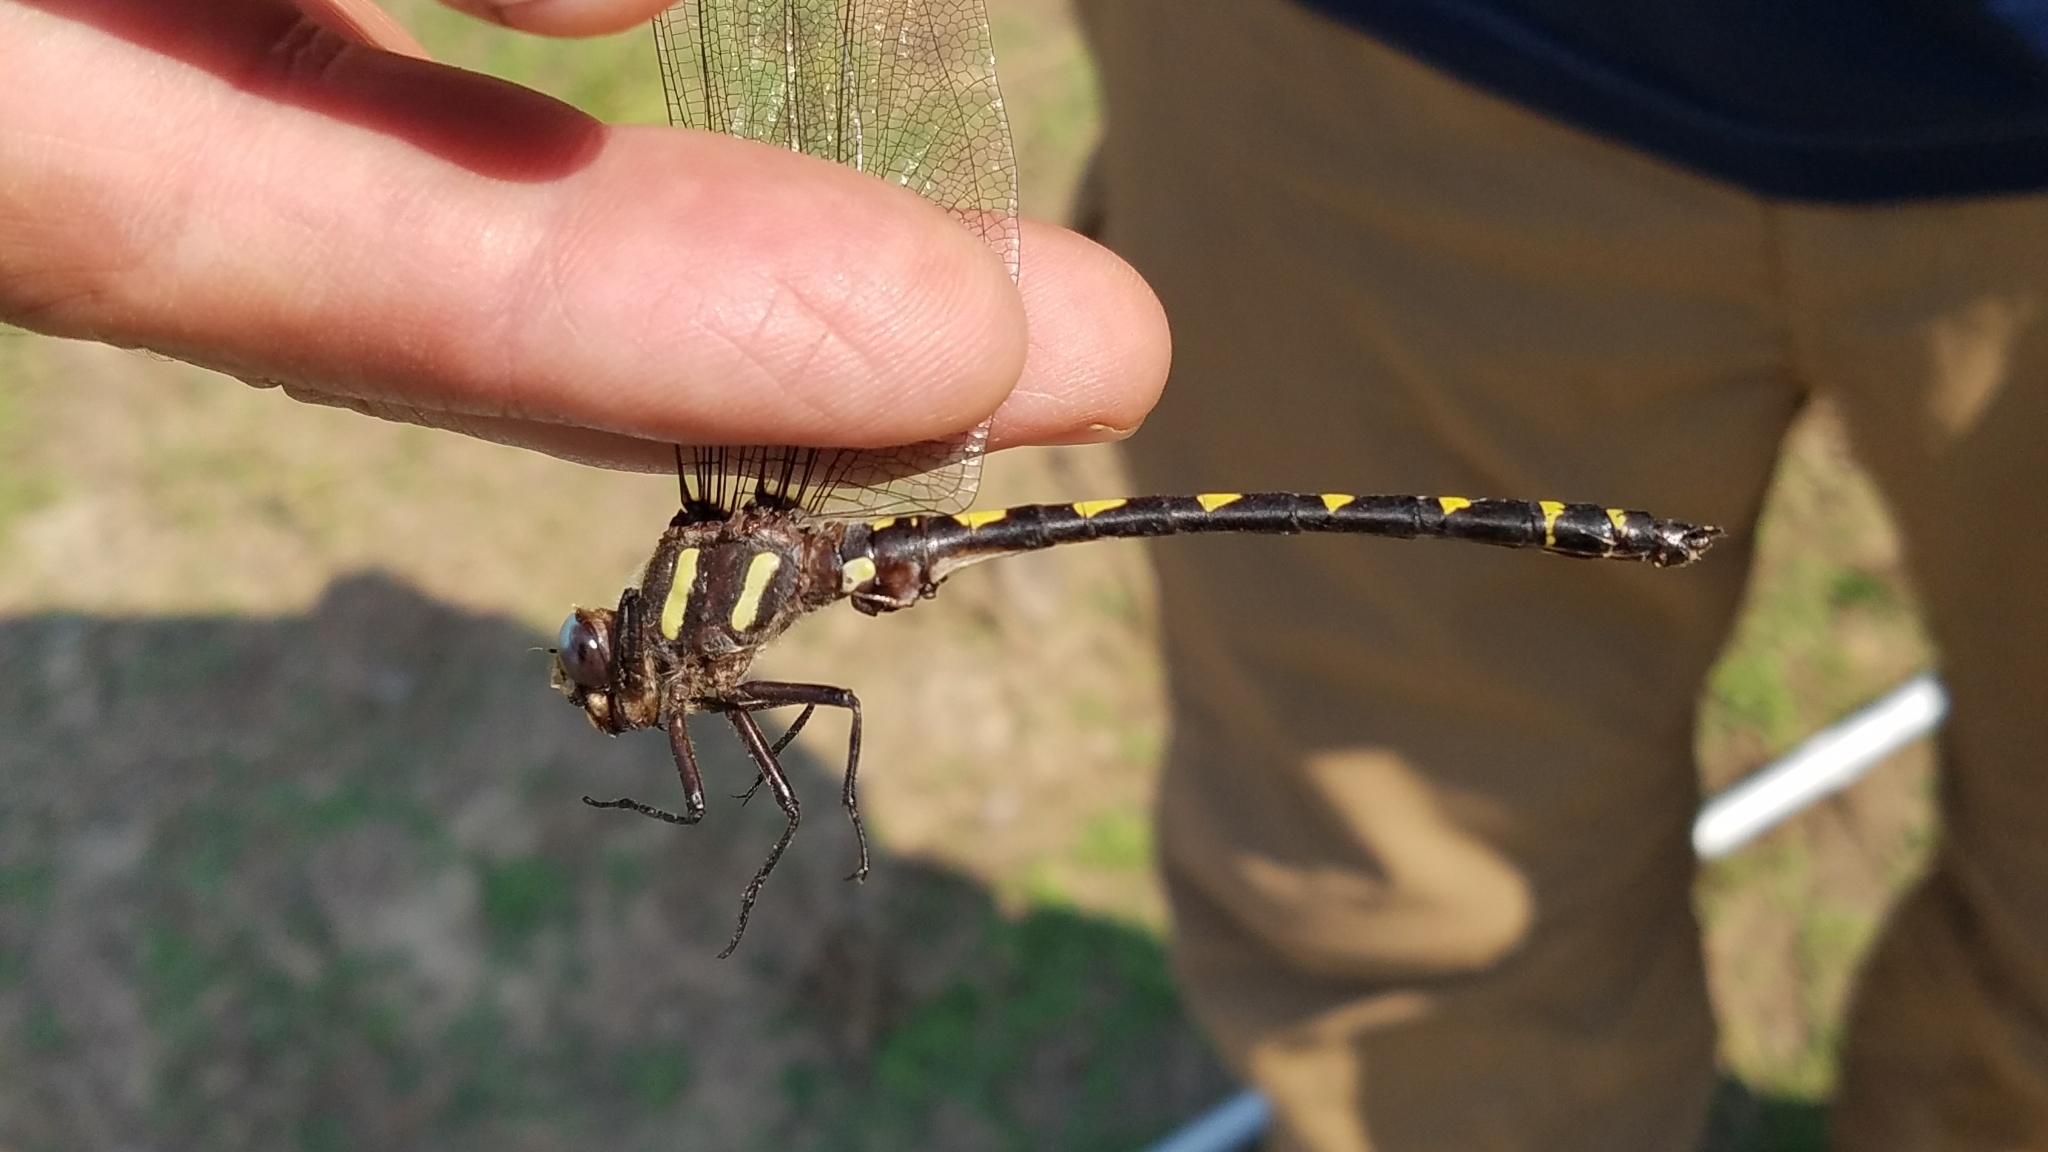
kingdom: Animalia
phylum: Arthropoda
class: Insecta
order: Odonata
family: Cordulegastridae
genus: Cordulegaster
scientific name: Cordulegaster dorsalis
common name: Pacific spiketail
